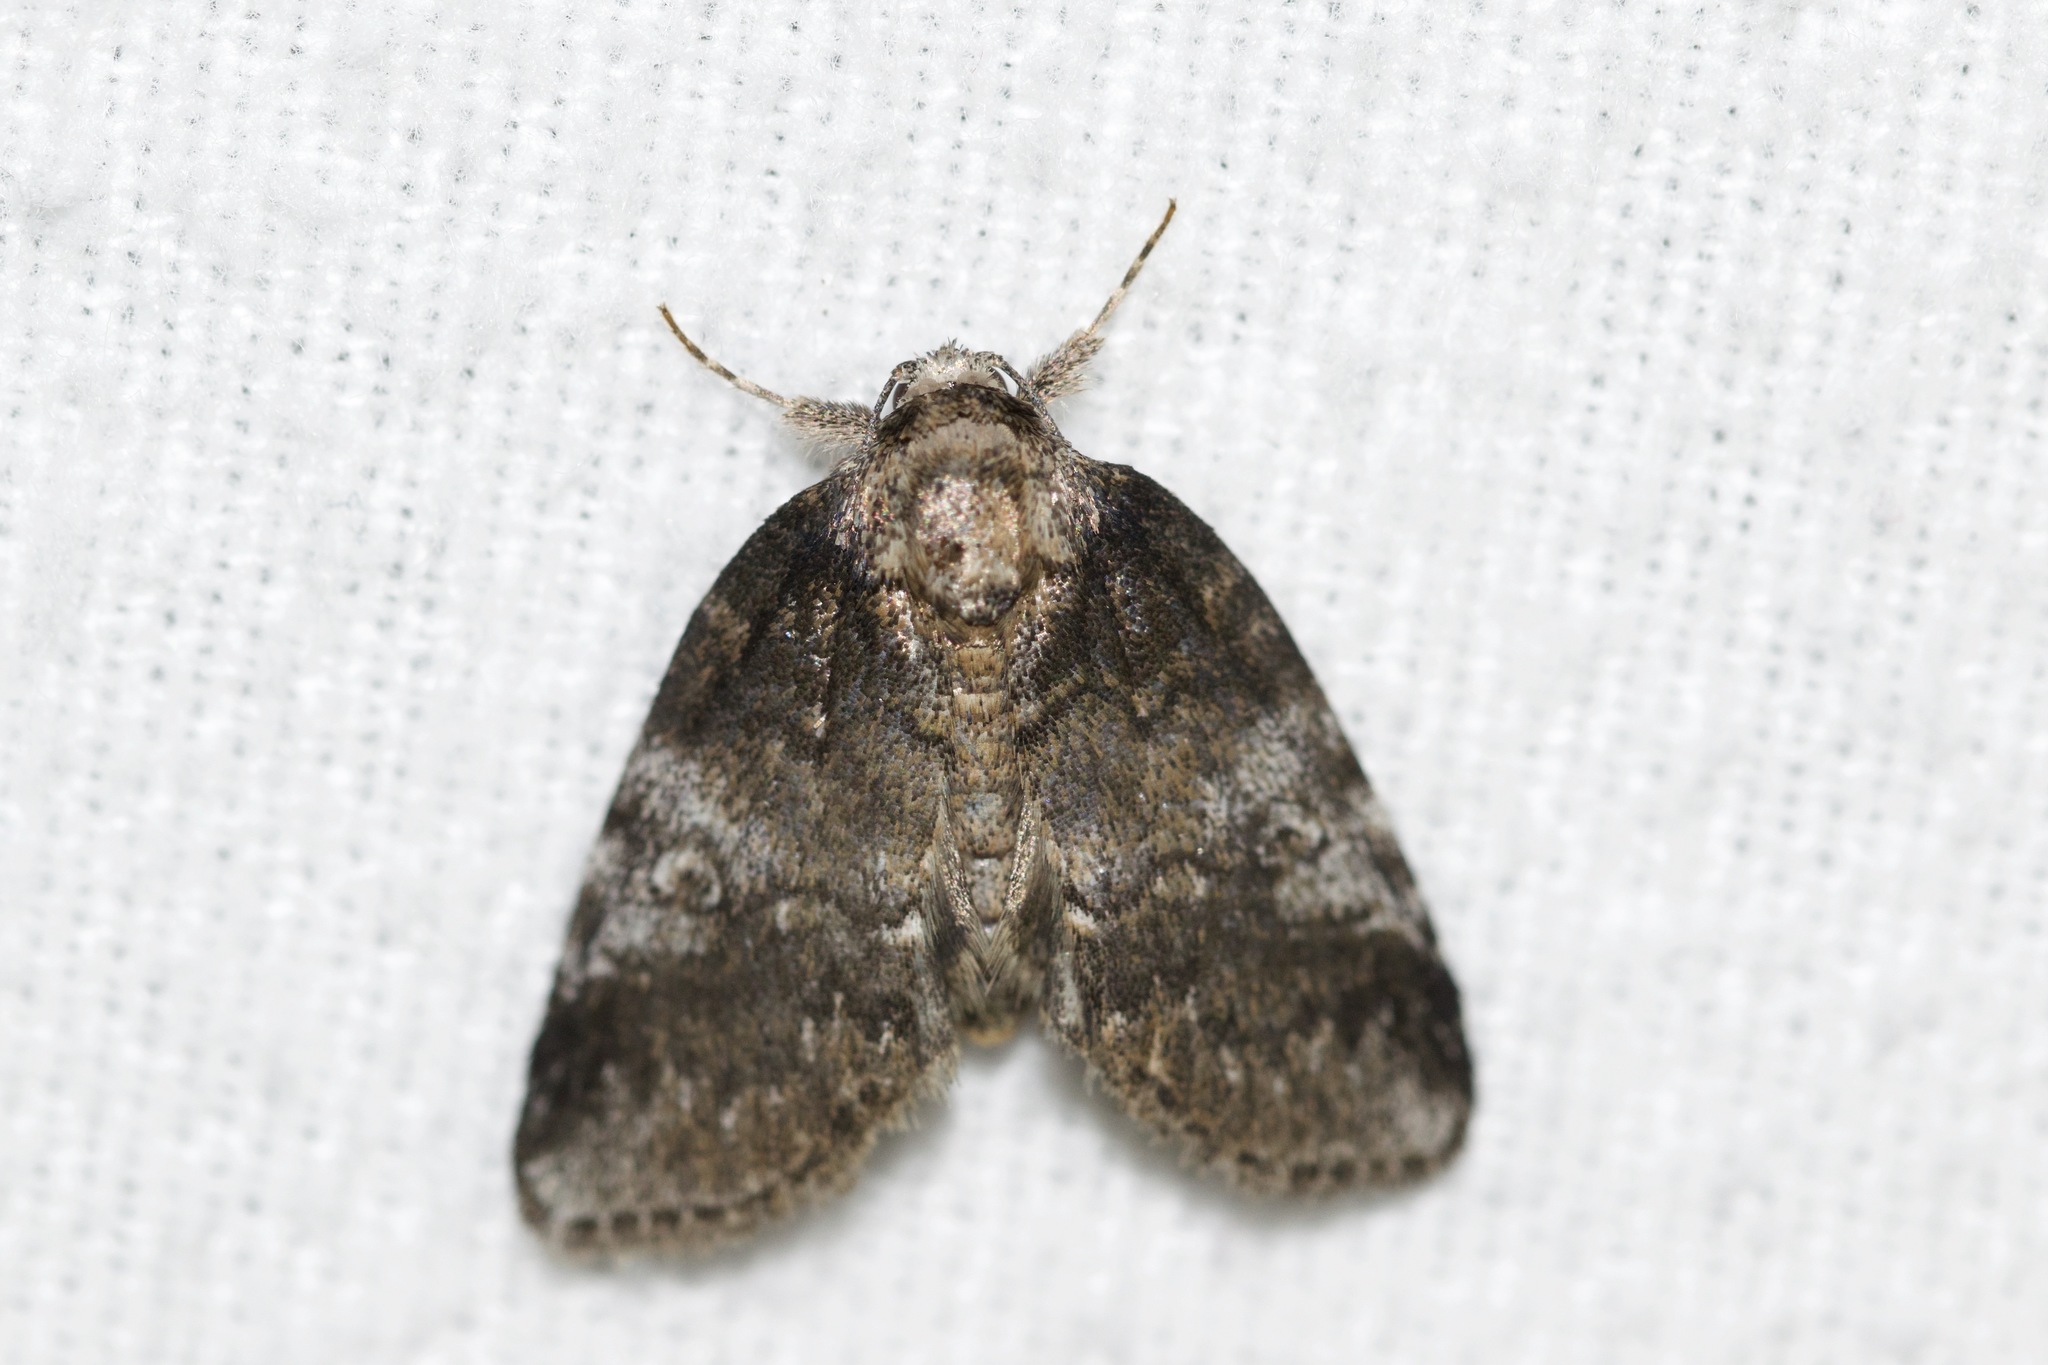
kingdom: Animalia
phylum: Arthropoda
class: Insecta
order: Lepidoptera
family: Nolidae
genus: Baileya
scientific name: Baileya levitans
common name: Pale baileya
